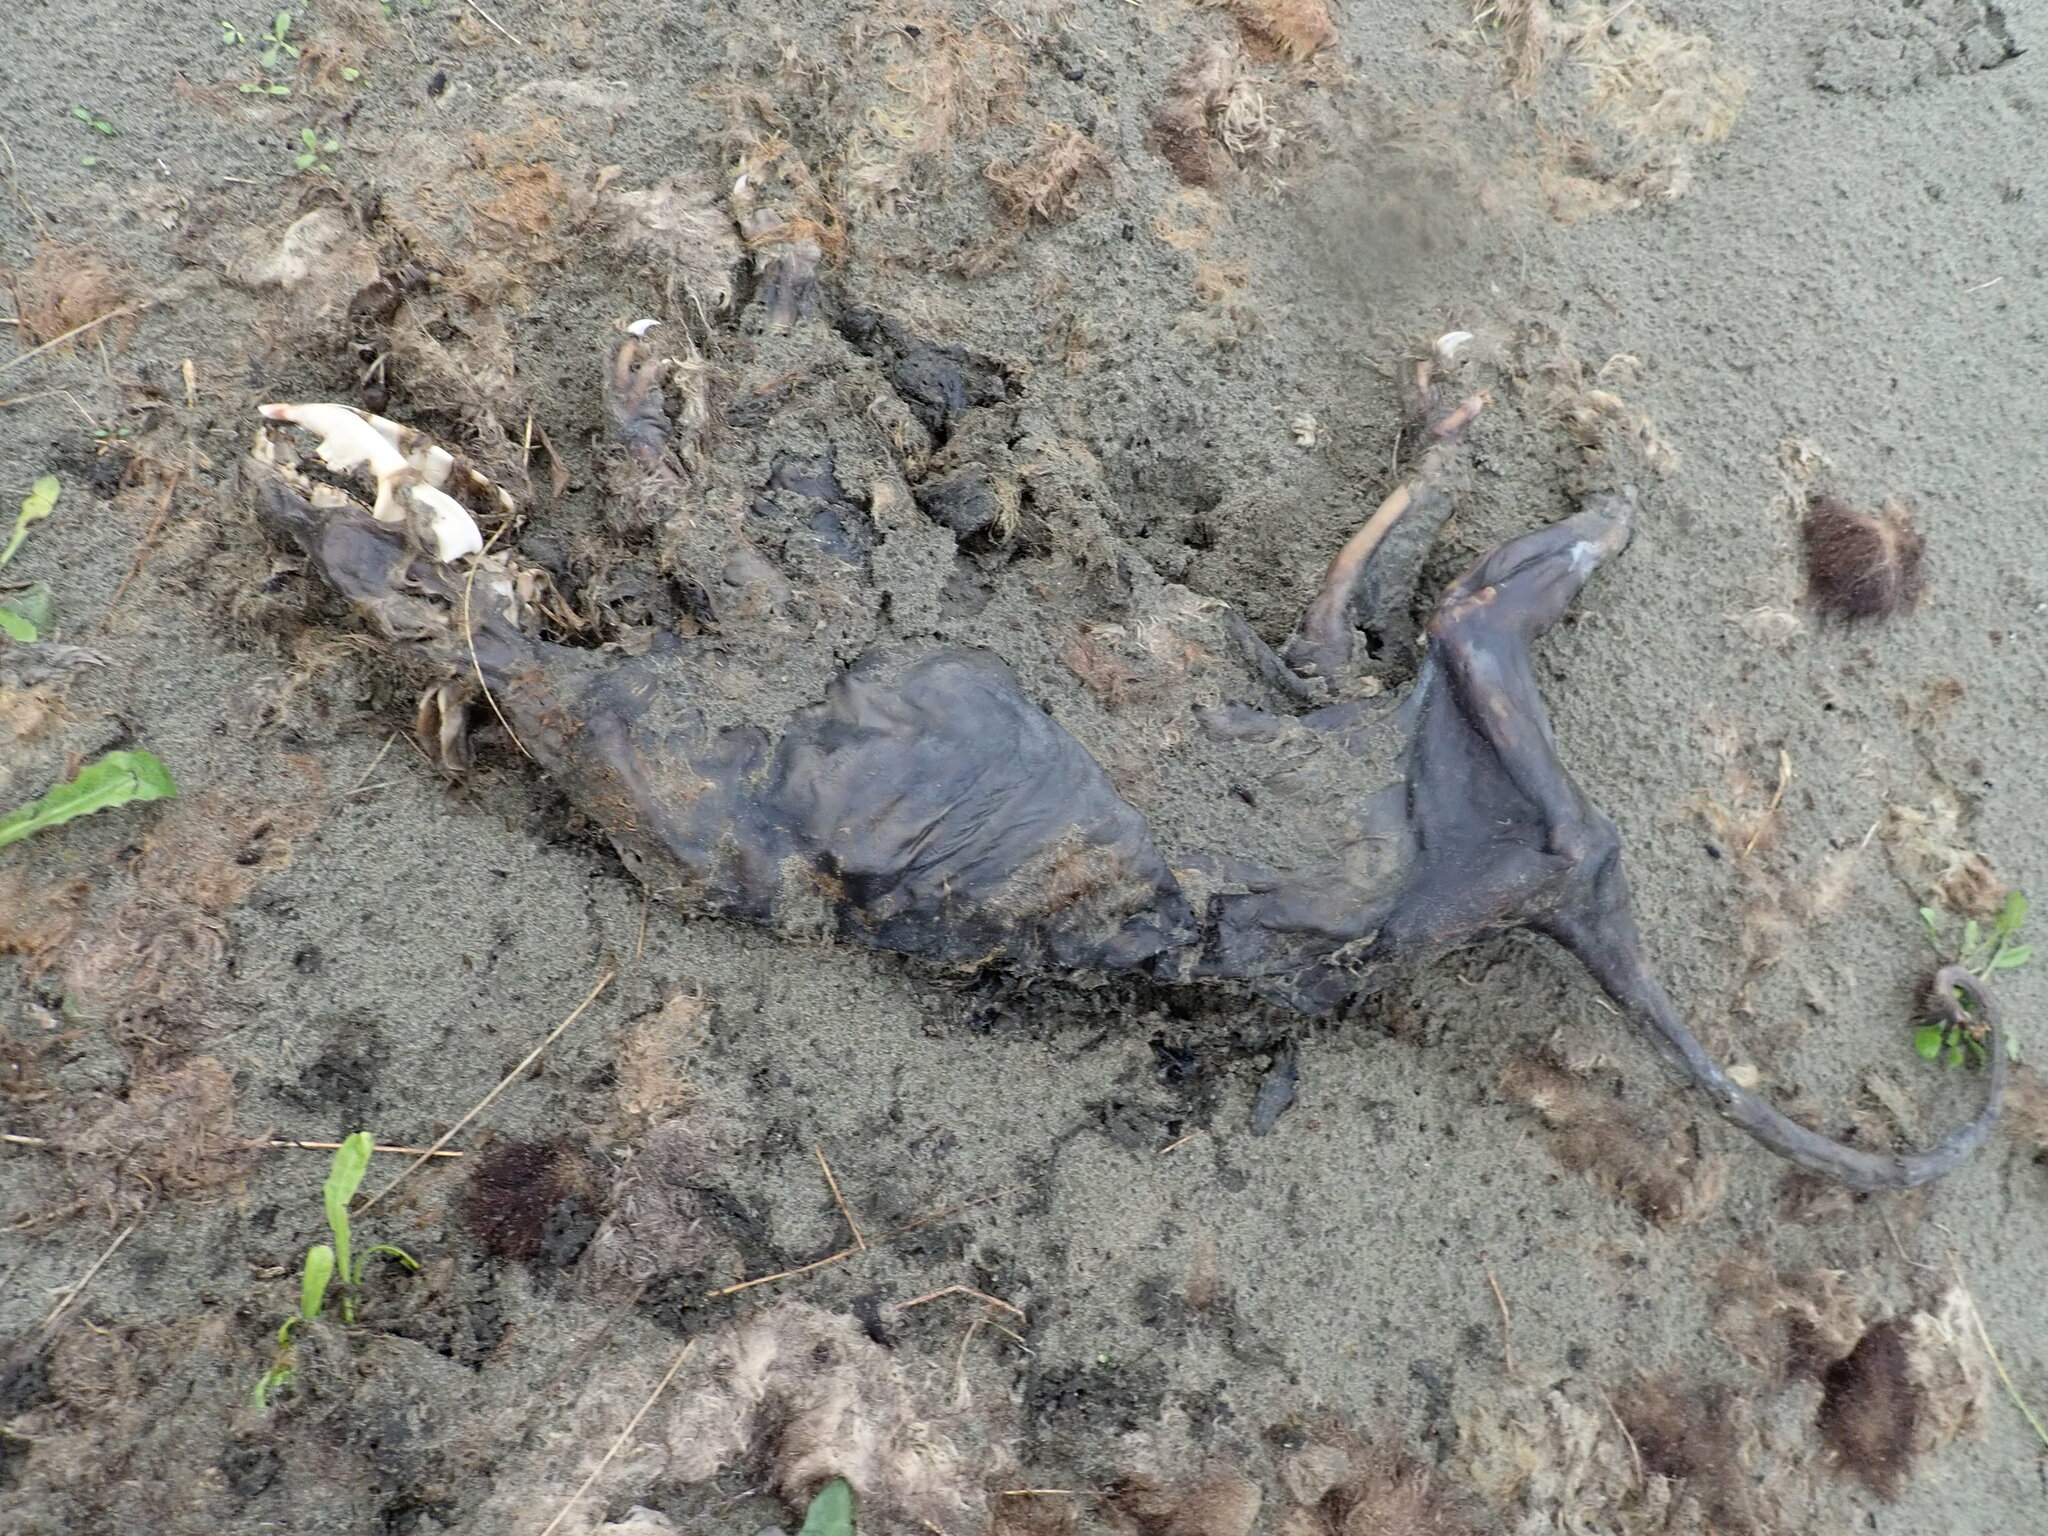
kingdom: Animalia
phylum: Chordata
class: Mammalia
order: Diprotodontia
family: Phalangeridae
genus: Trichosurus
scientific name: Trichosurus vulpecula
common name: Common brushtail
